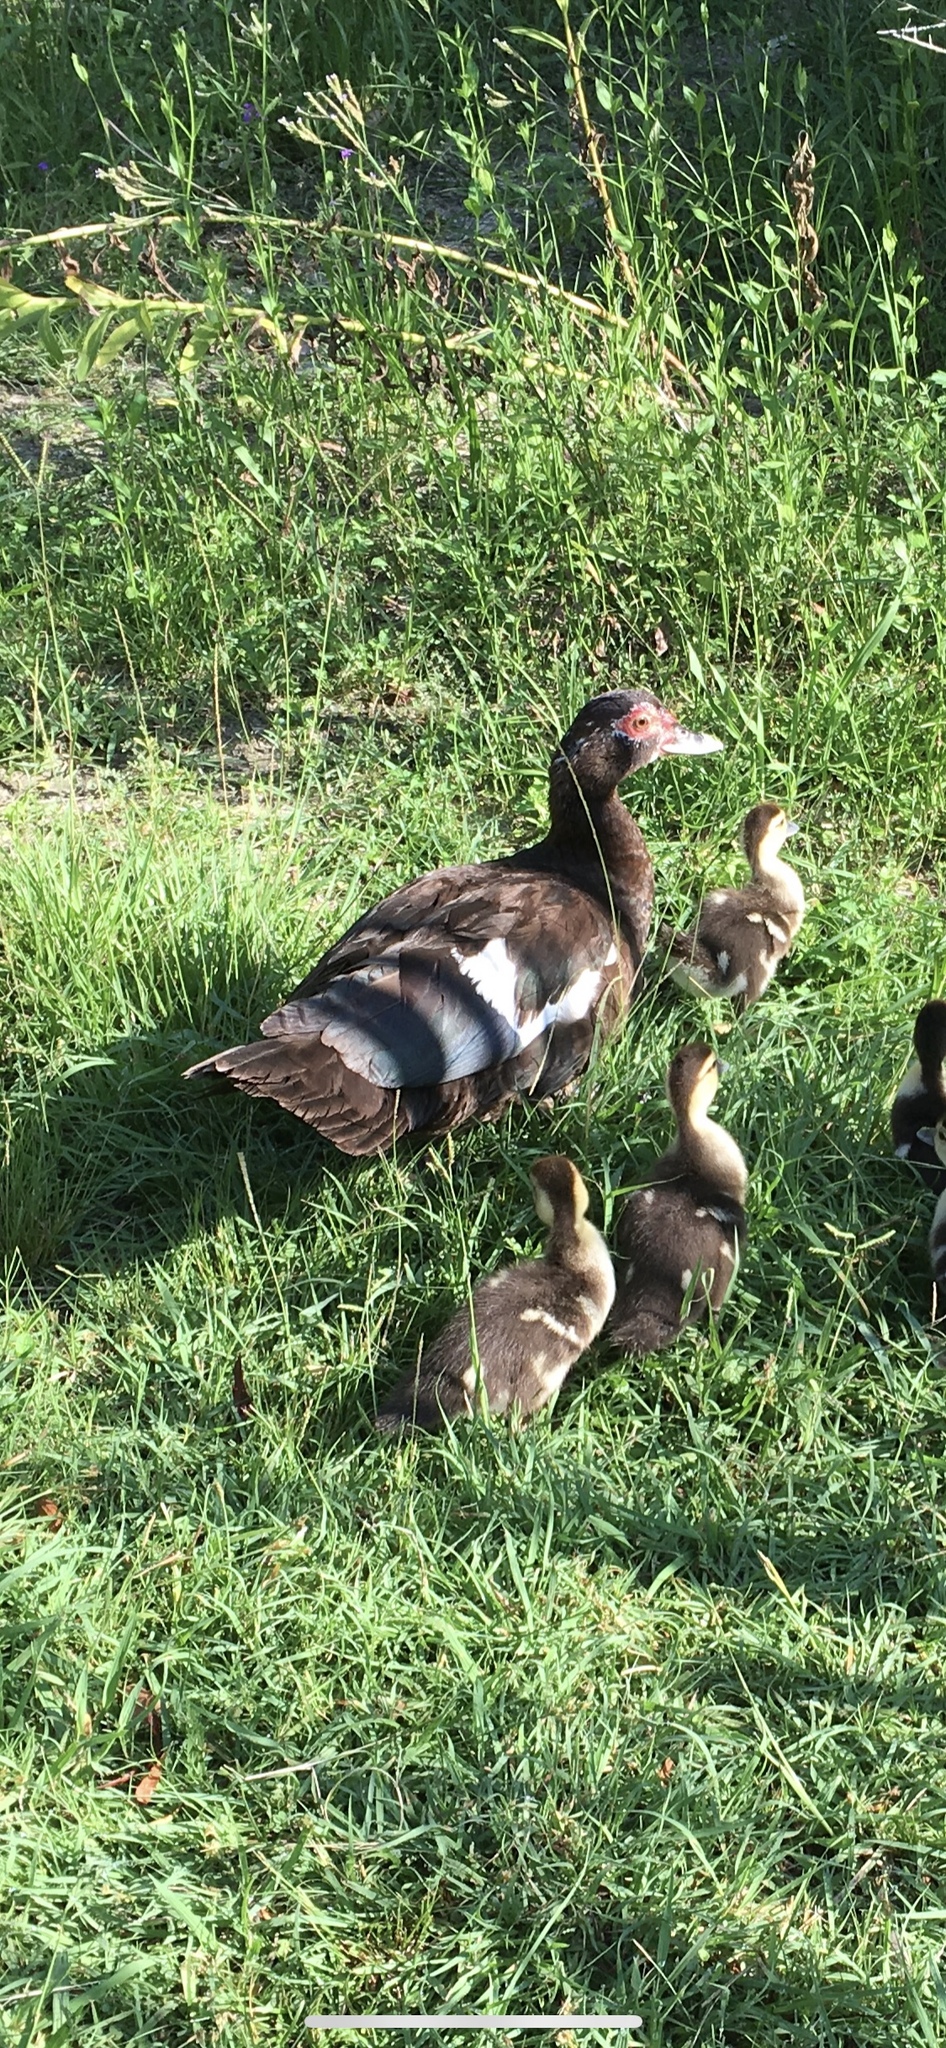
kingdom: Animalia
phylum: Chordata
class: Aves
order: Anseriformes
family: Anatidae
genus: Cairina
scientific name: Cairina moschata
